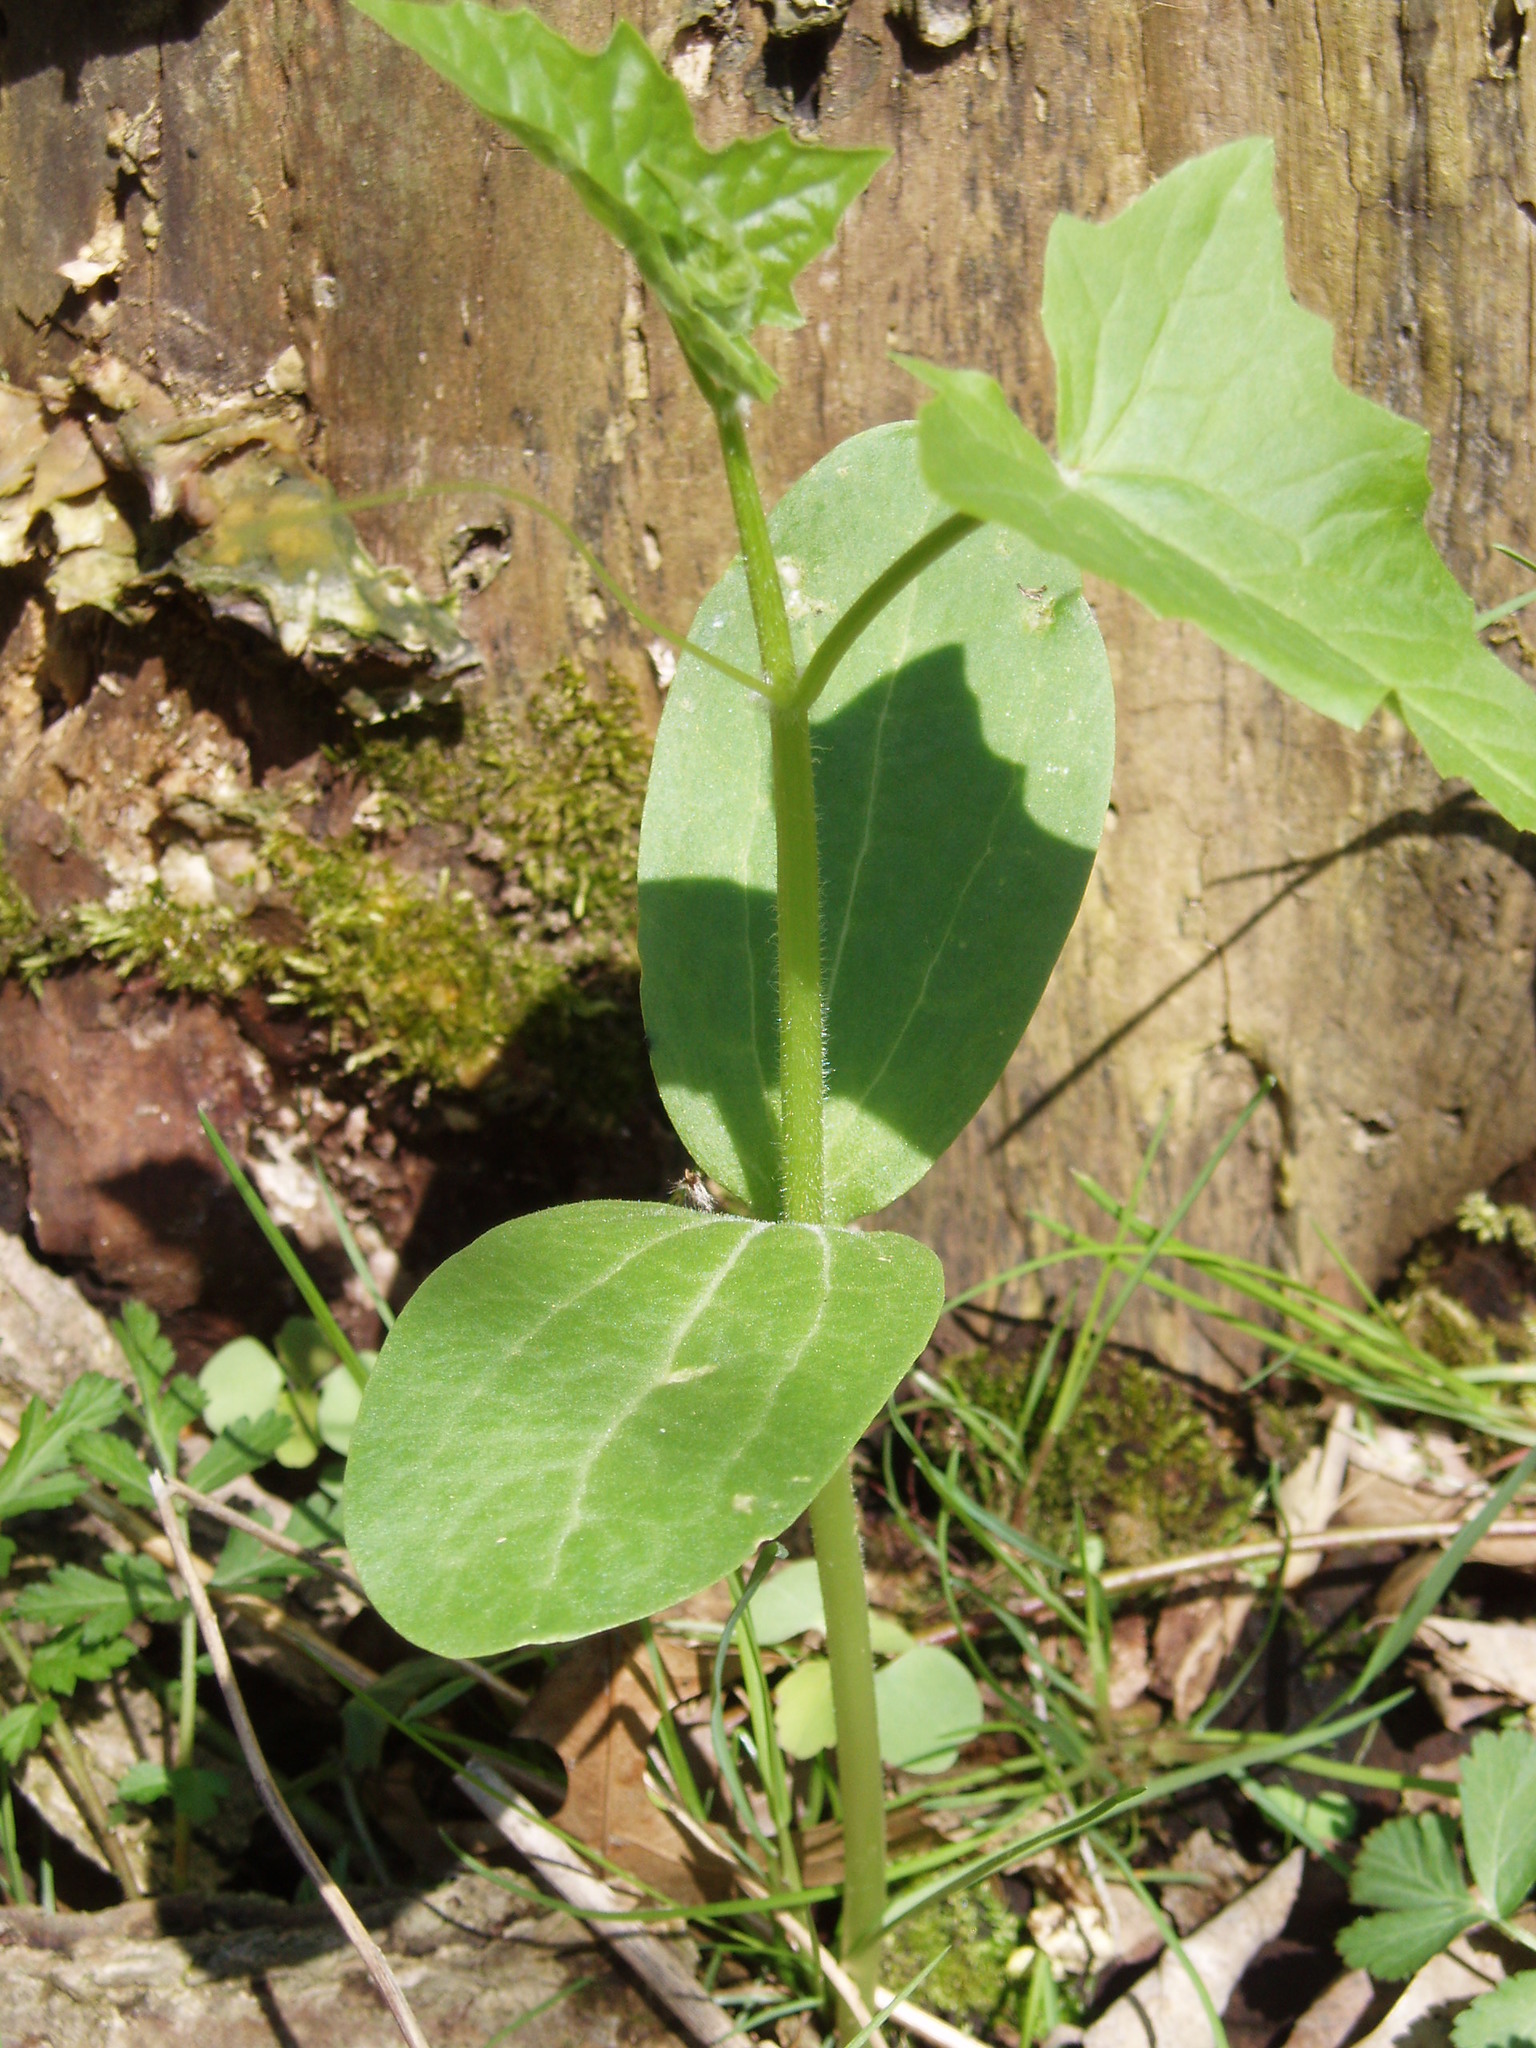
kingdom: Plantae
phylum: Tracheophyta
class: Magnoliopsida
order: Cucurbitales
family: Cucurbitaceae
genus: Echinocystis
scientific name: Echinocystis lobata
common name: Wild cucumber
